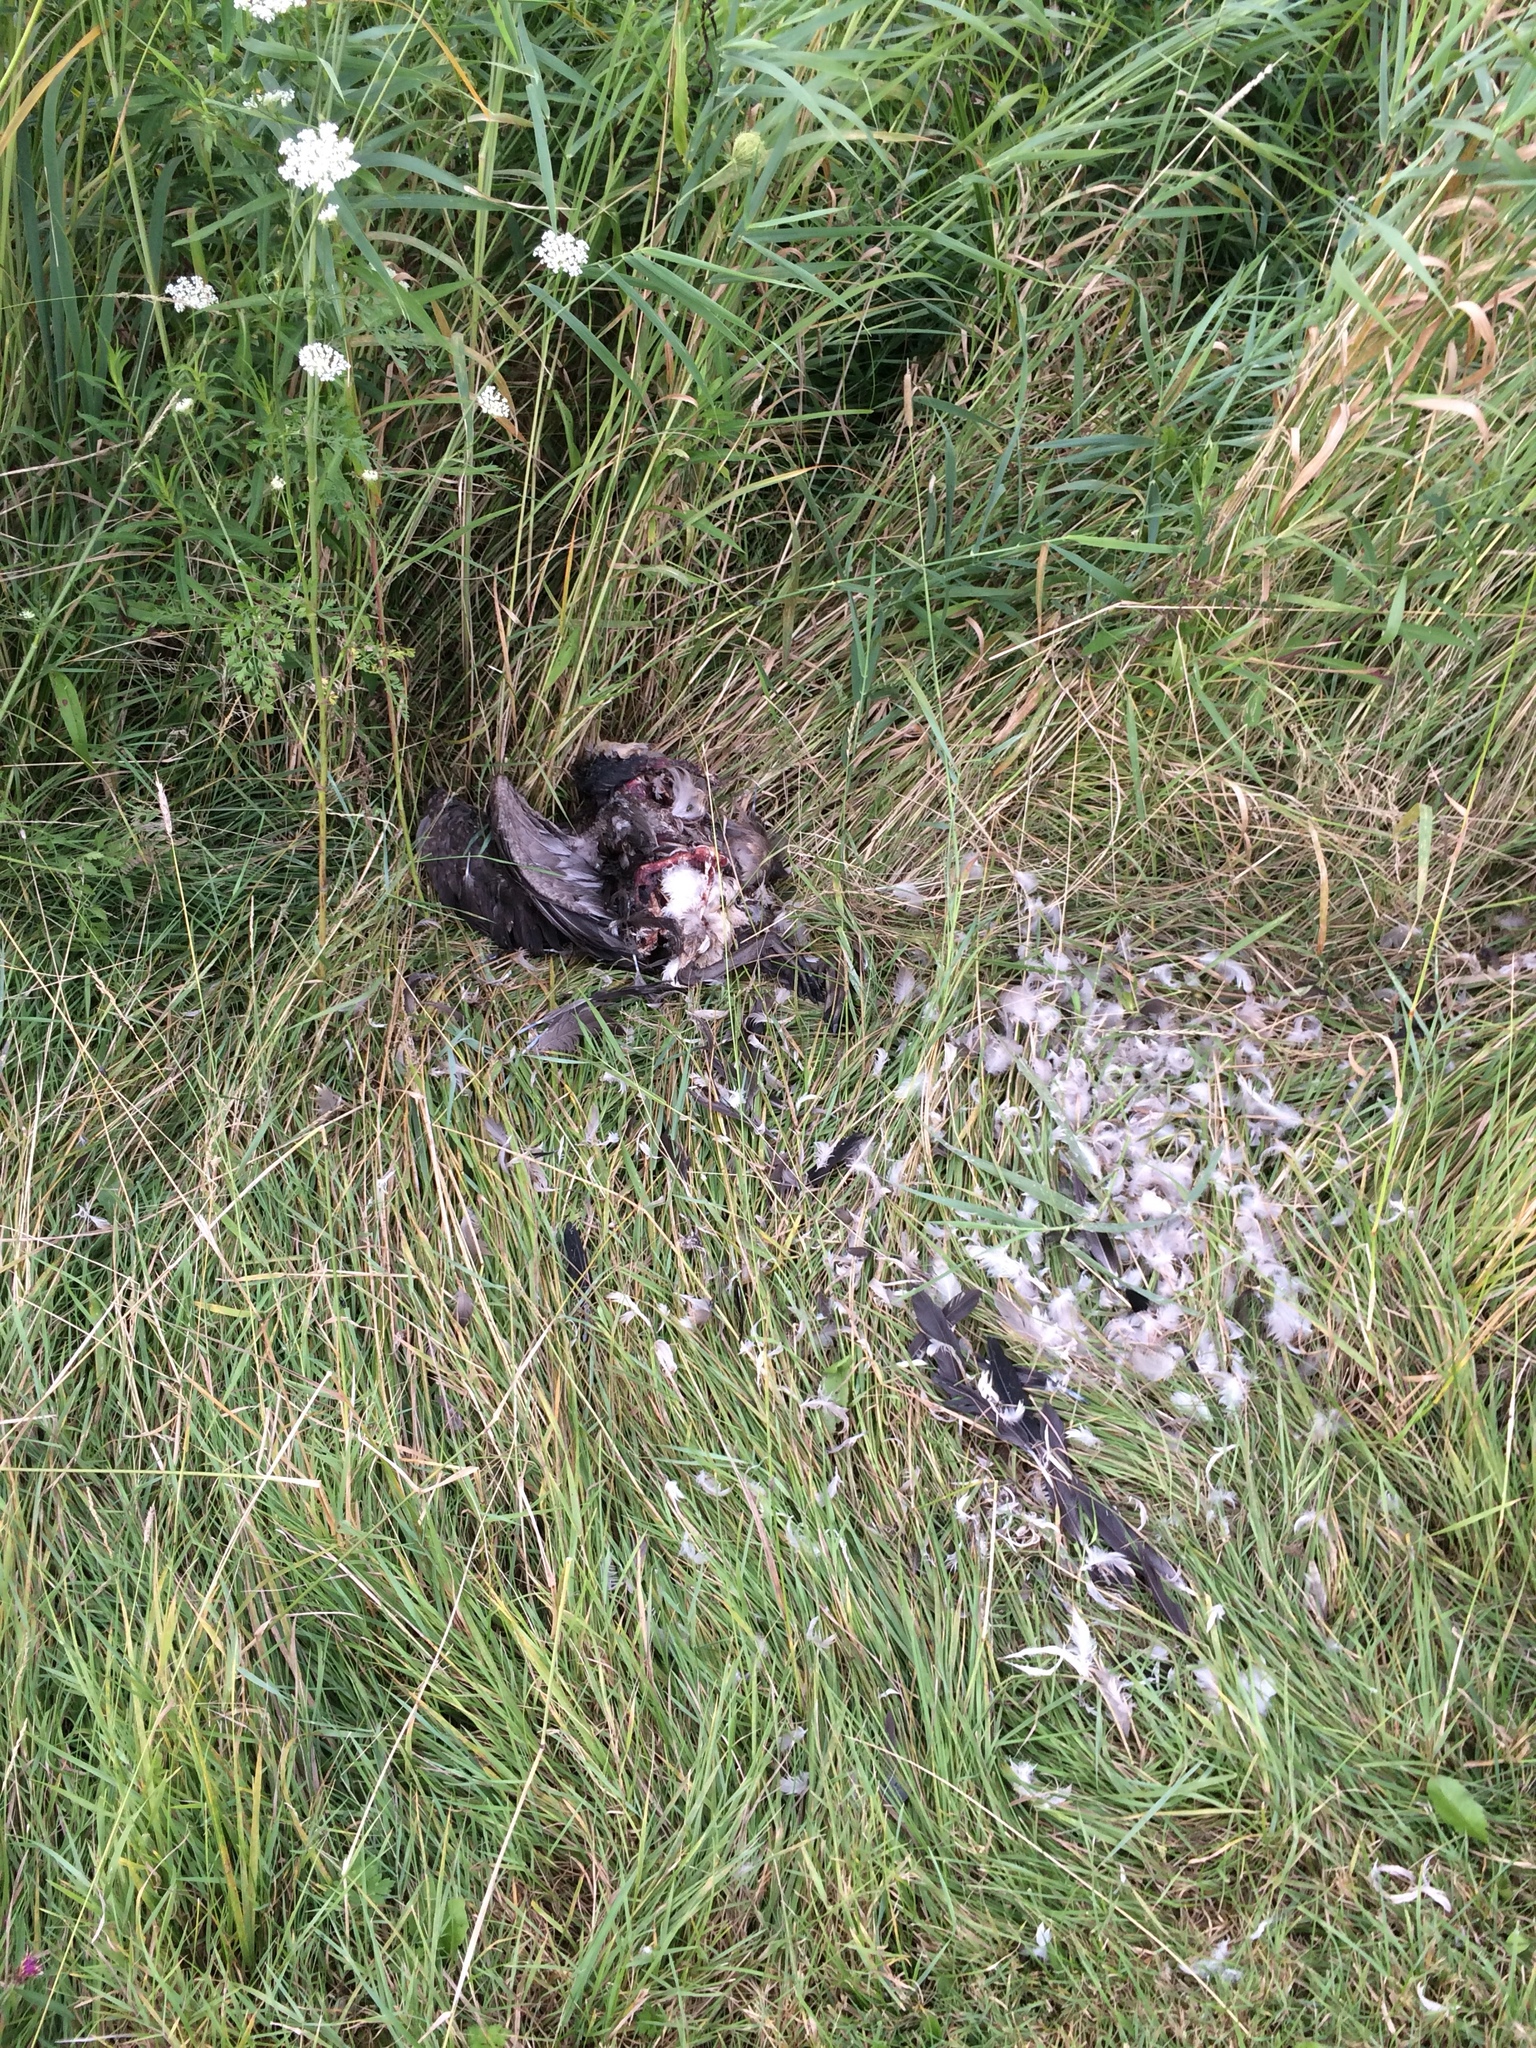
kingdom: Animalia
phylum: Chordata
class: Aves
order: Suliformes
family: Phalacrocoracidae
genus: Phalacrocorax
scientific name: Phalacrocorax auritus
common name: Double-crested cormorant
